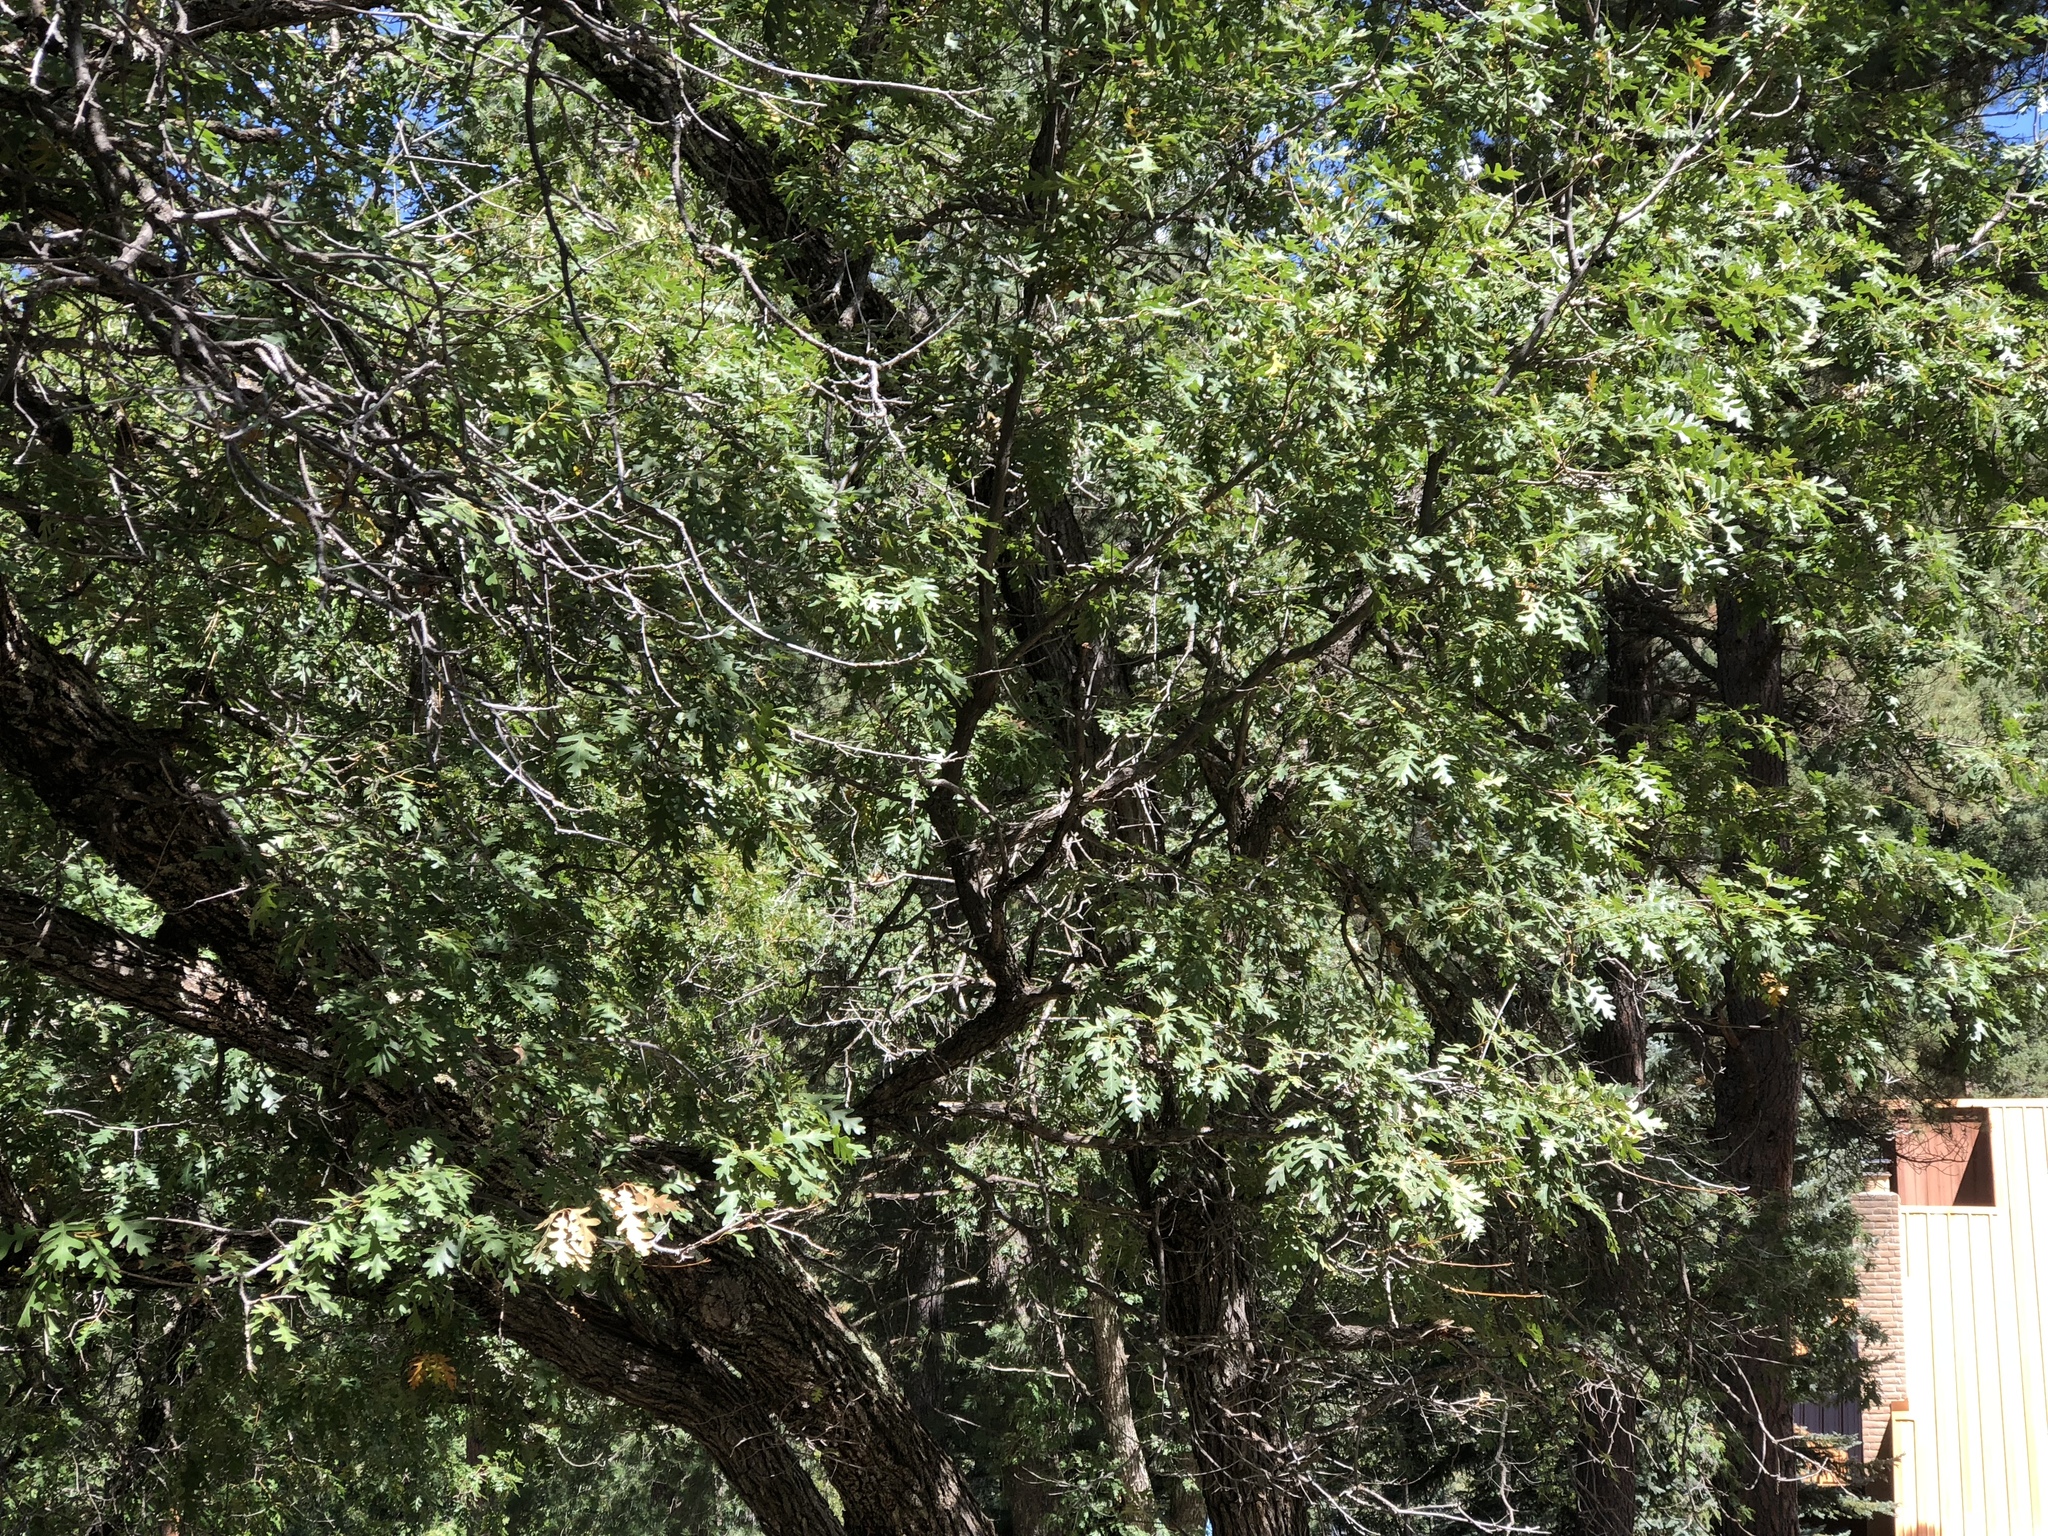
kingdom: Plantae
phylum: Tracheophyta
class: Magnoliopsida
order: Fagales
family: Fagaceae
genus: Quercus
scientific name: Quercus gambelii
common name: Gambel oak
